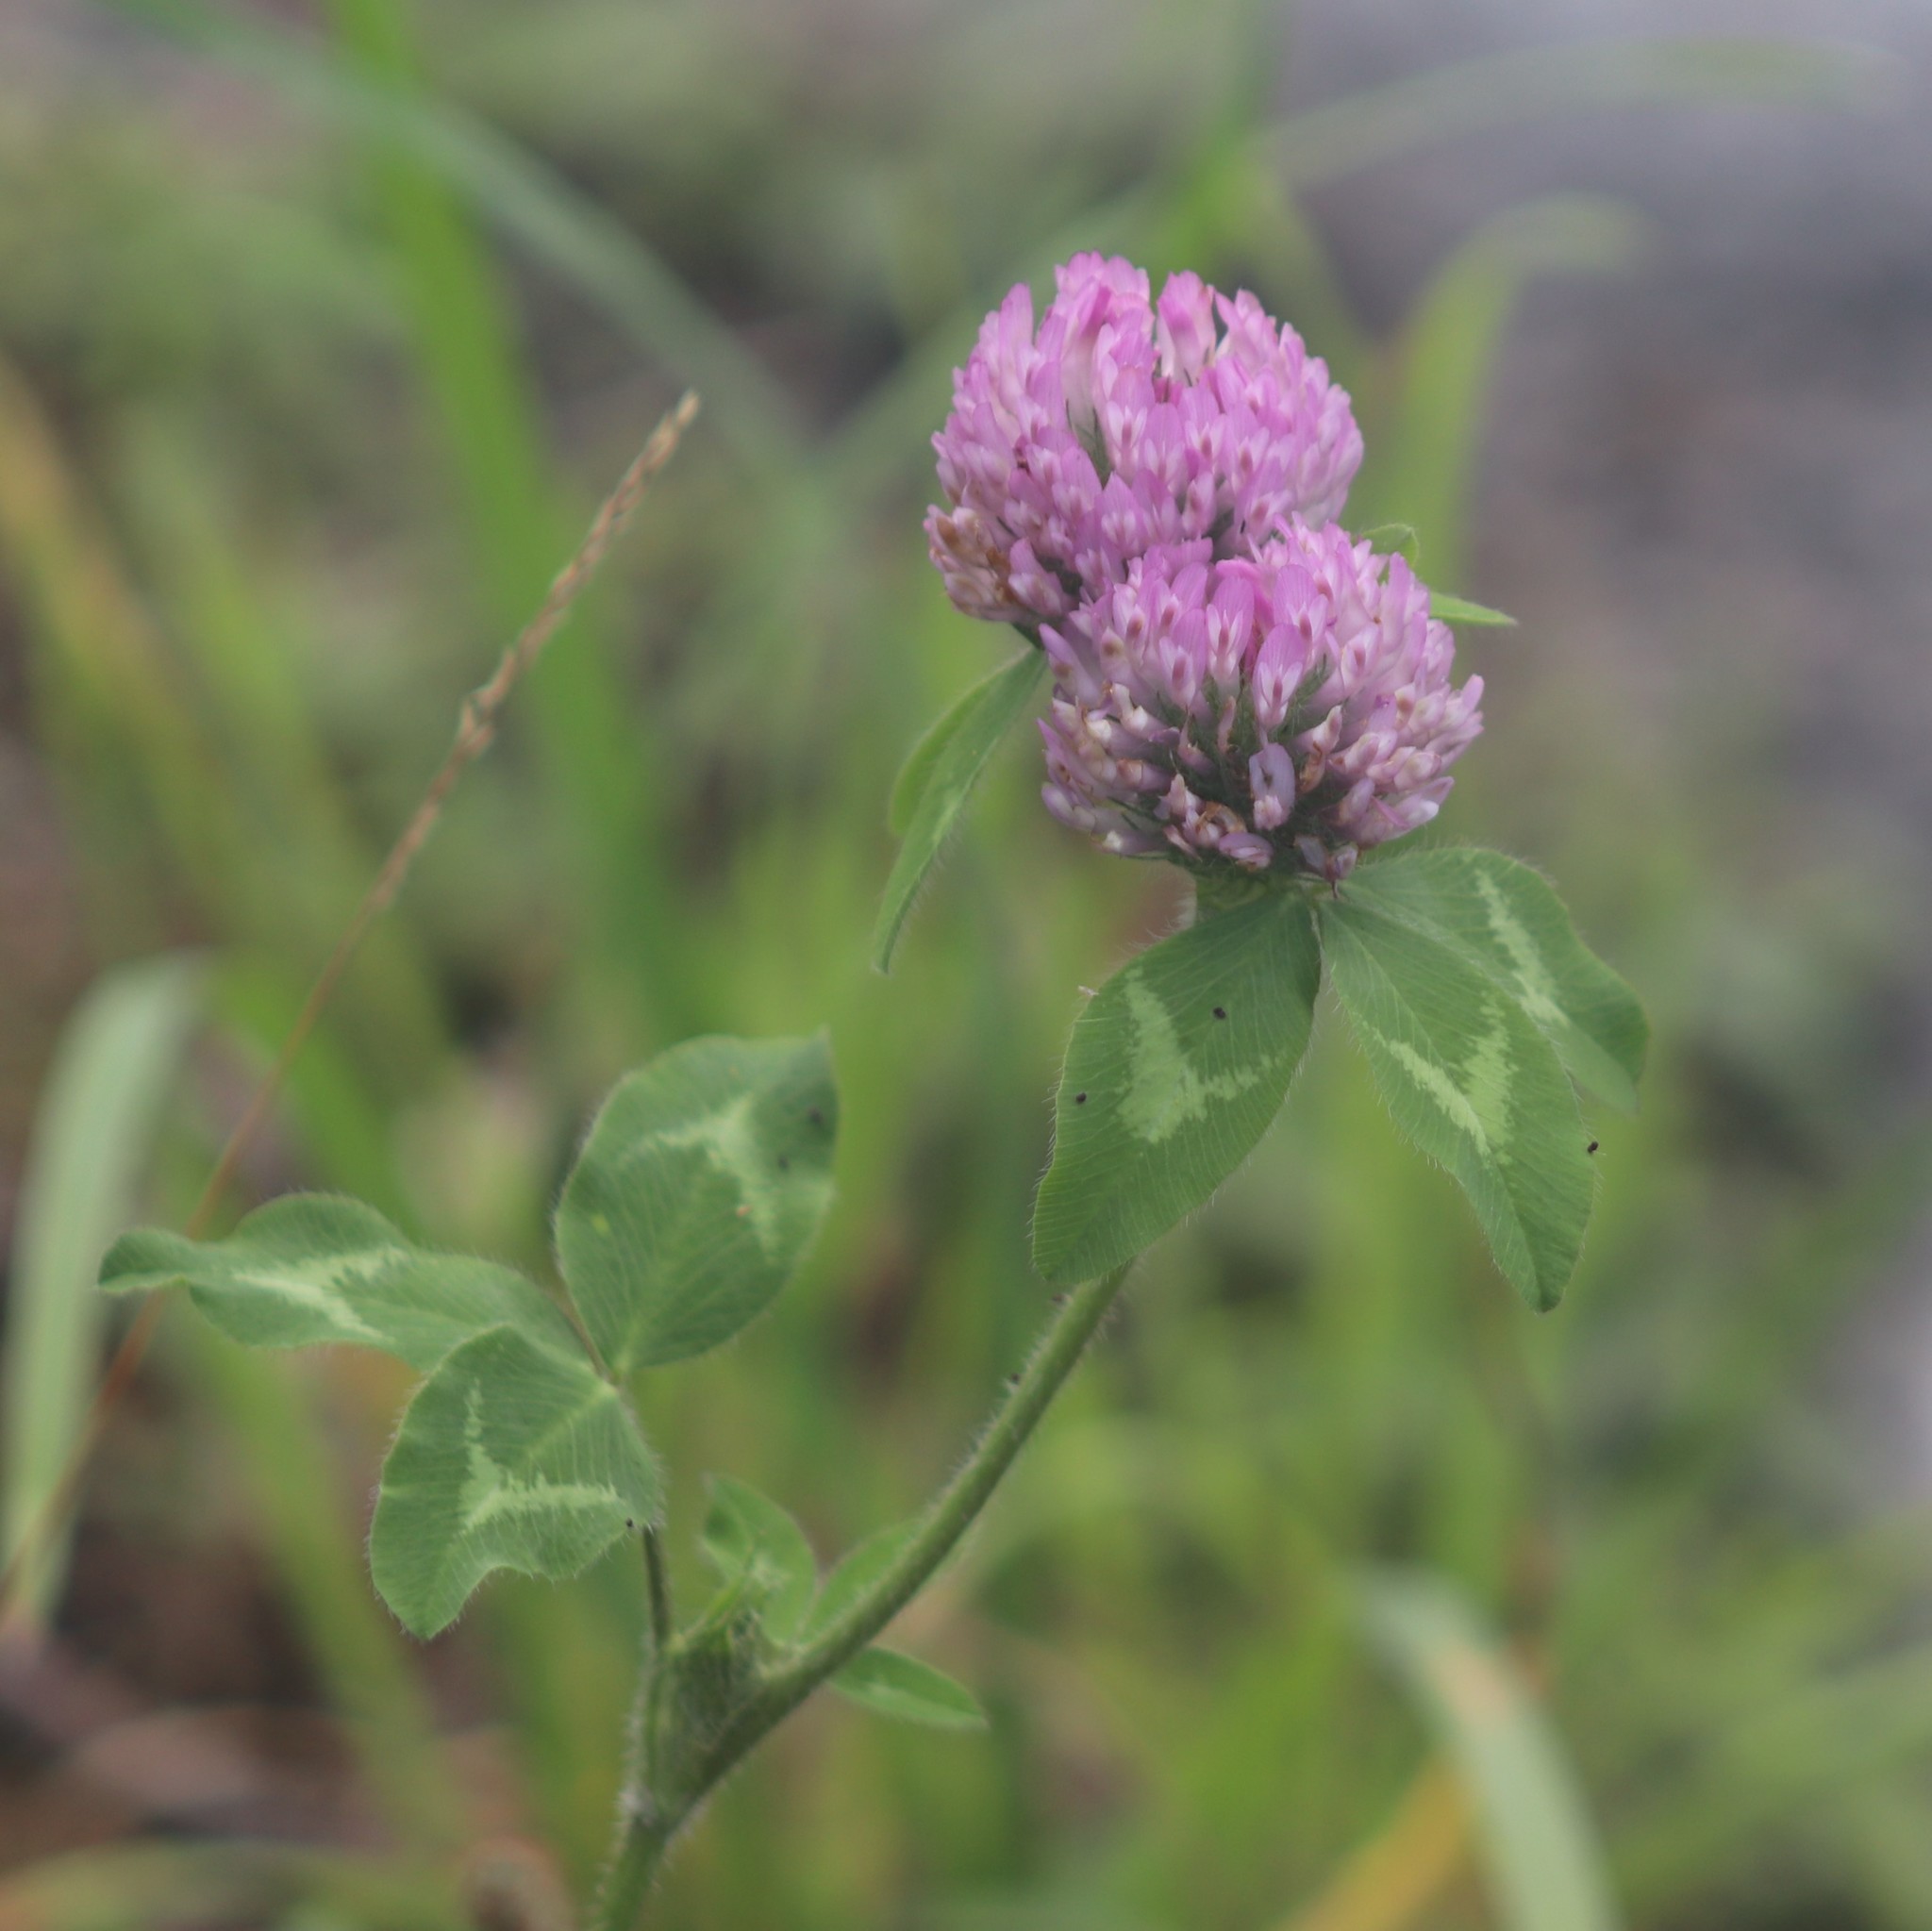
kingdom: Plantae
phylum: Tracheophyta
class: Magnoliopsida
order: Fabales
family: Fabaceae
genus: Trifolium
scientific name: Trifolium pratense
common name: Red clover
